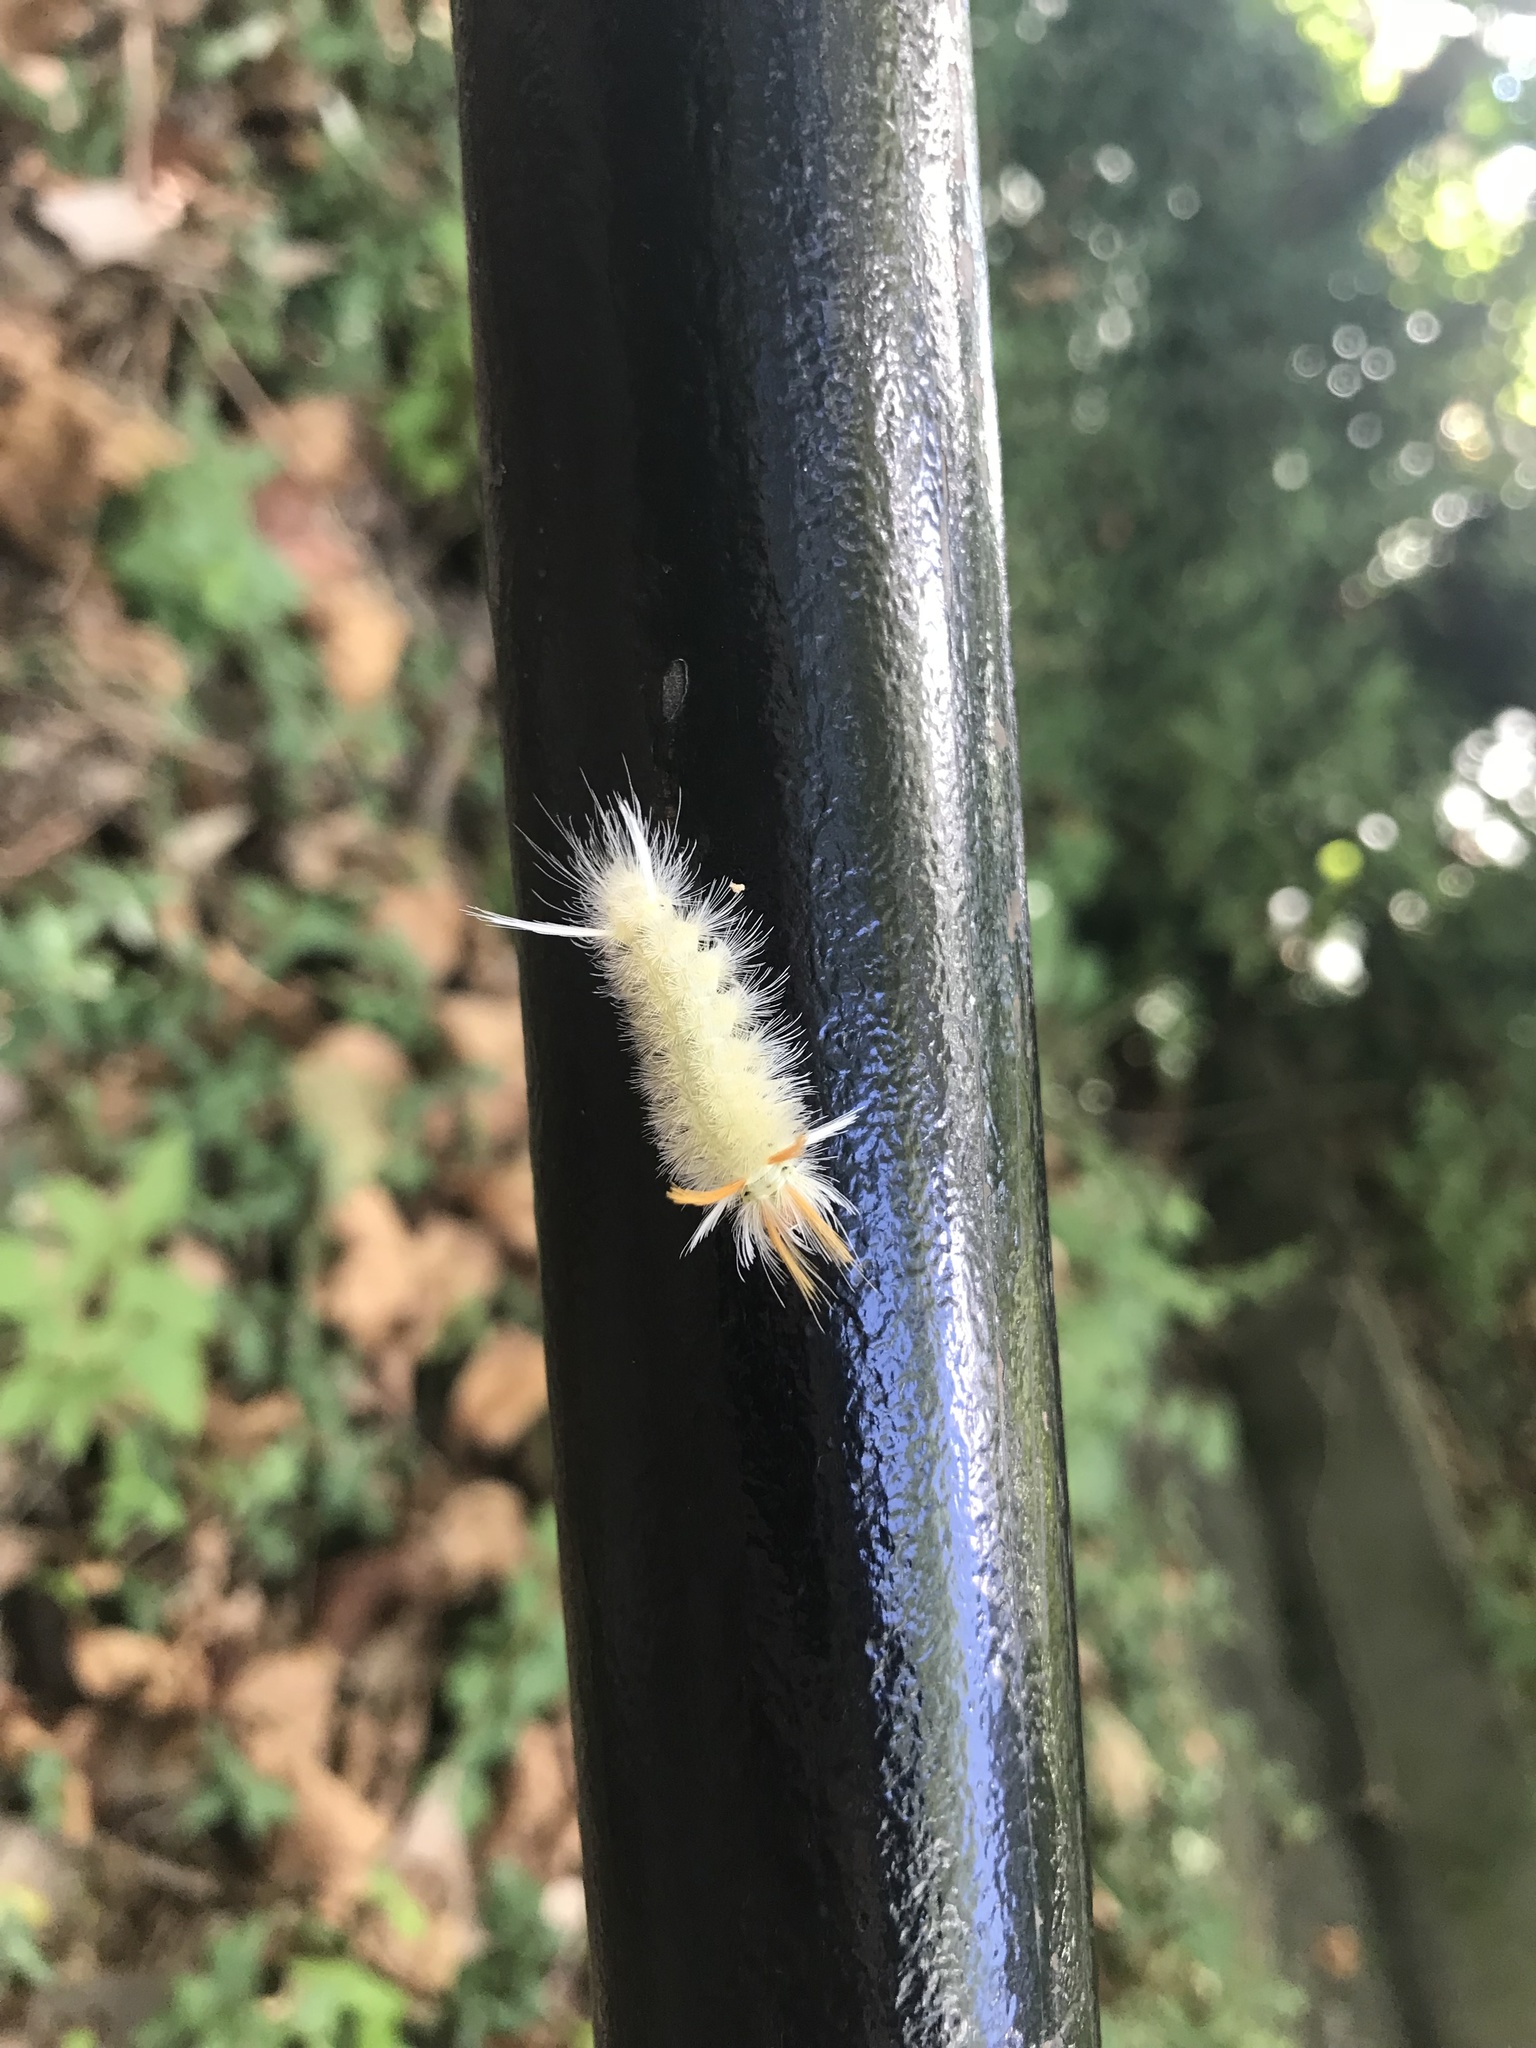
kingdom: Animalia
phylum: Arthropoda
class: Insecta
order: Lepidoptera
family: Erebidae
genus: Halysidota
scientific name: Halysidota harrisii
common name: Sycamore tussock moth
